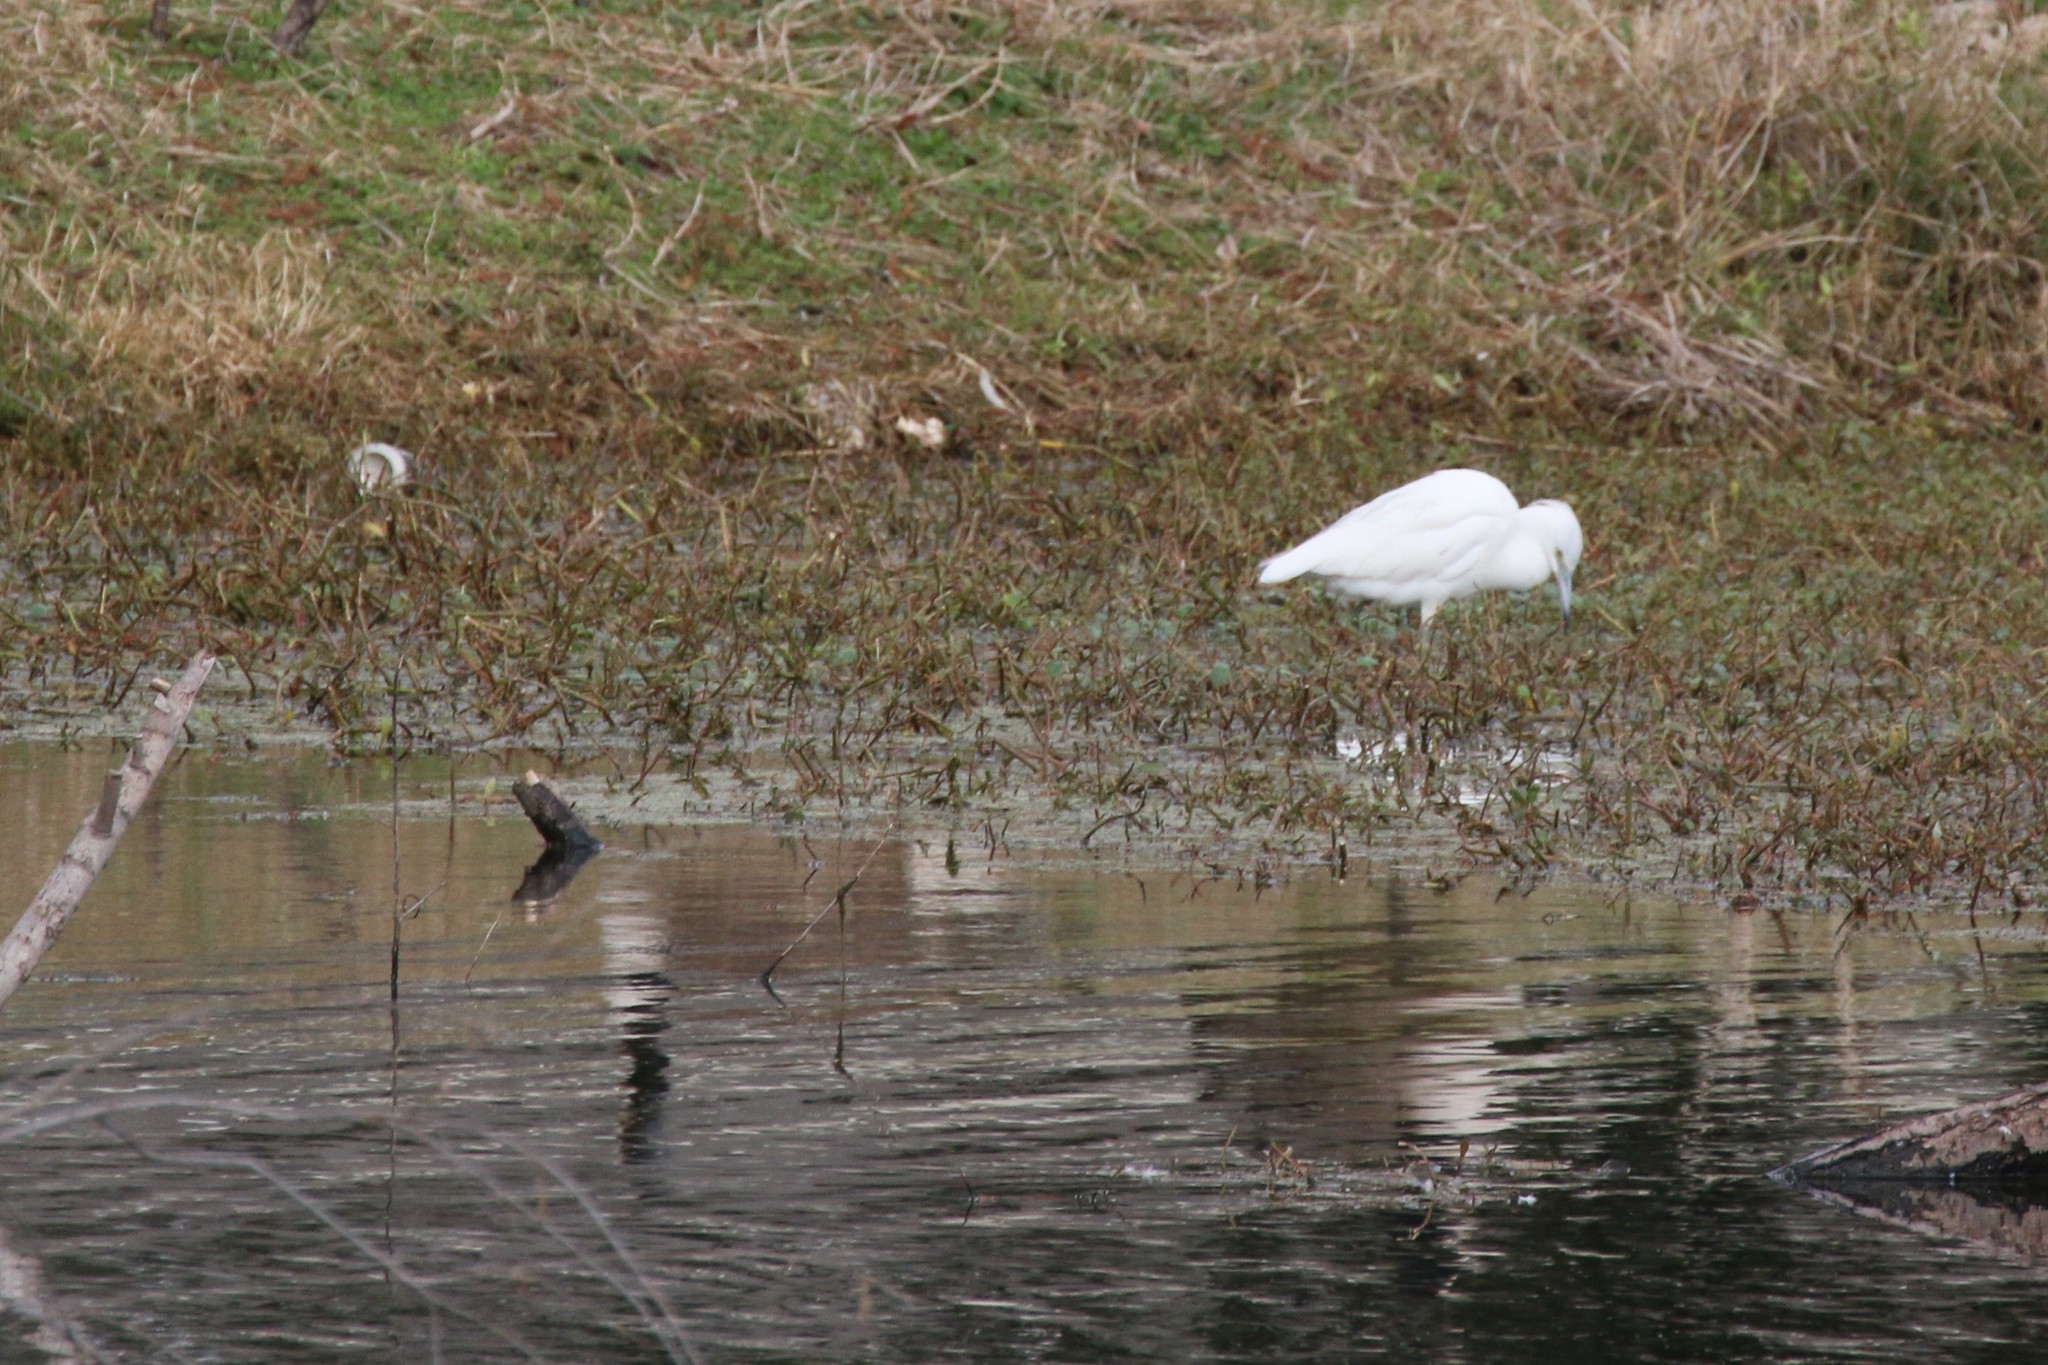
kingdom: Animalia
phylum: Chordata
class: Aves
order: Pelecaniformes
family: Ardeidae
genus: Egretta
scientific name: Egretta caerulea
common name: Little blue heron
